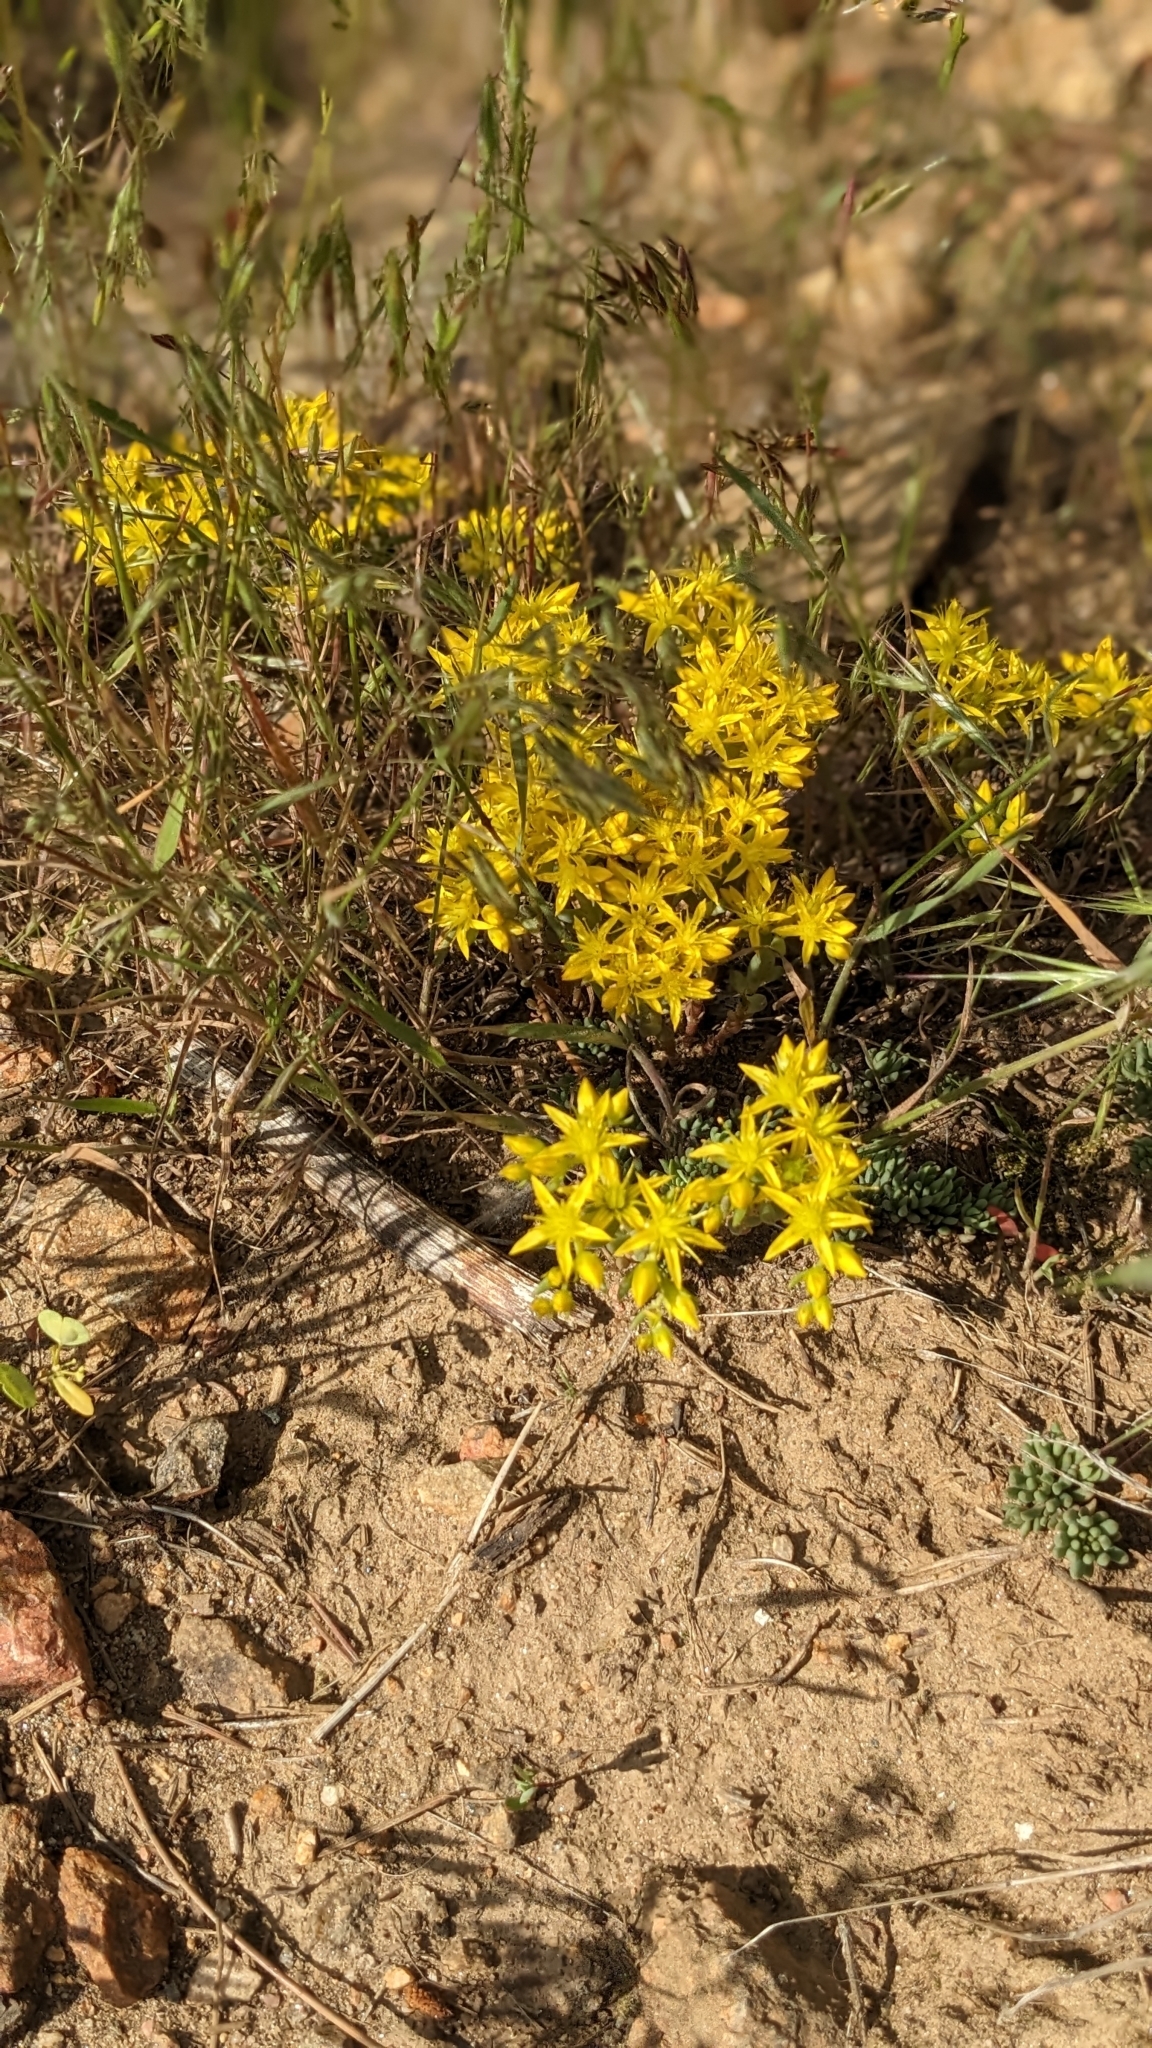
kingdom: Plantae
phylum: Tracheophyta
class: Magnoliopsida
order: Saxifragales
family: Crassulaceae
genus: Sedum
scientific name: Sedum lanceolatum
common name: Common stonecrop
